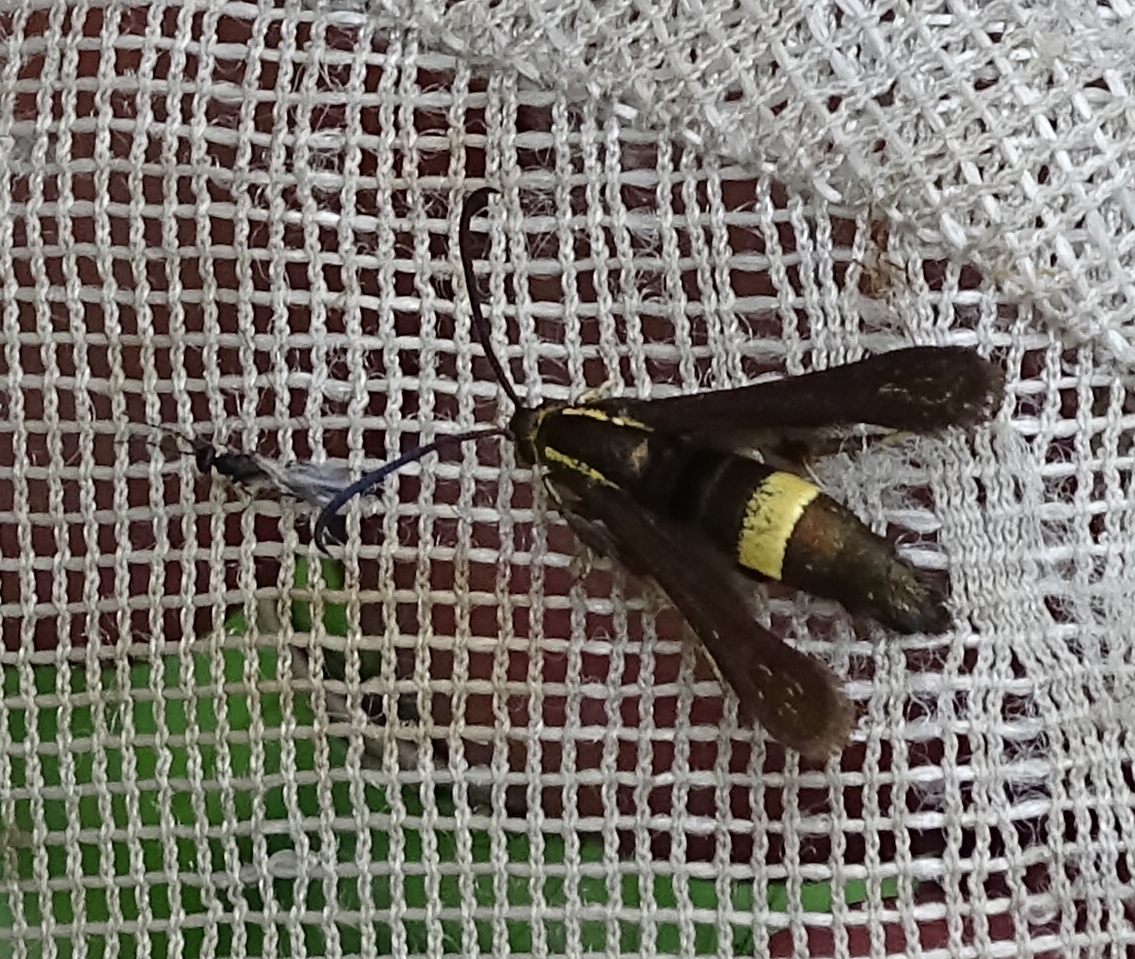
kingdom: Animalia
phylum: Arthropoda
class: Insecta
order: Lepidoptera
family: Sesiidae
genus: Carmenta
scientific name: Carmenta pyralidiformis
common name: Boneset borer moth
